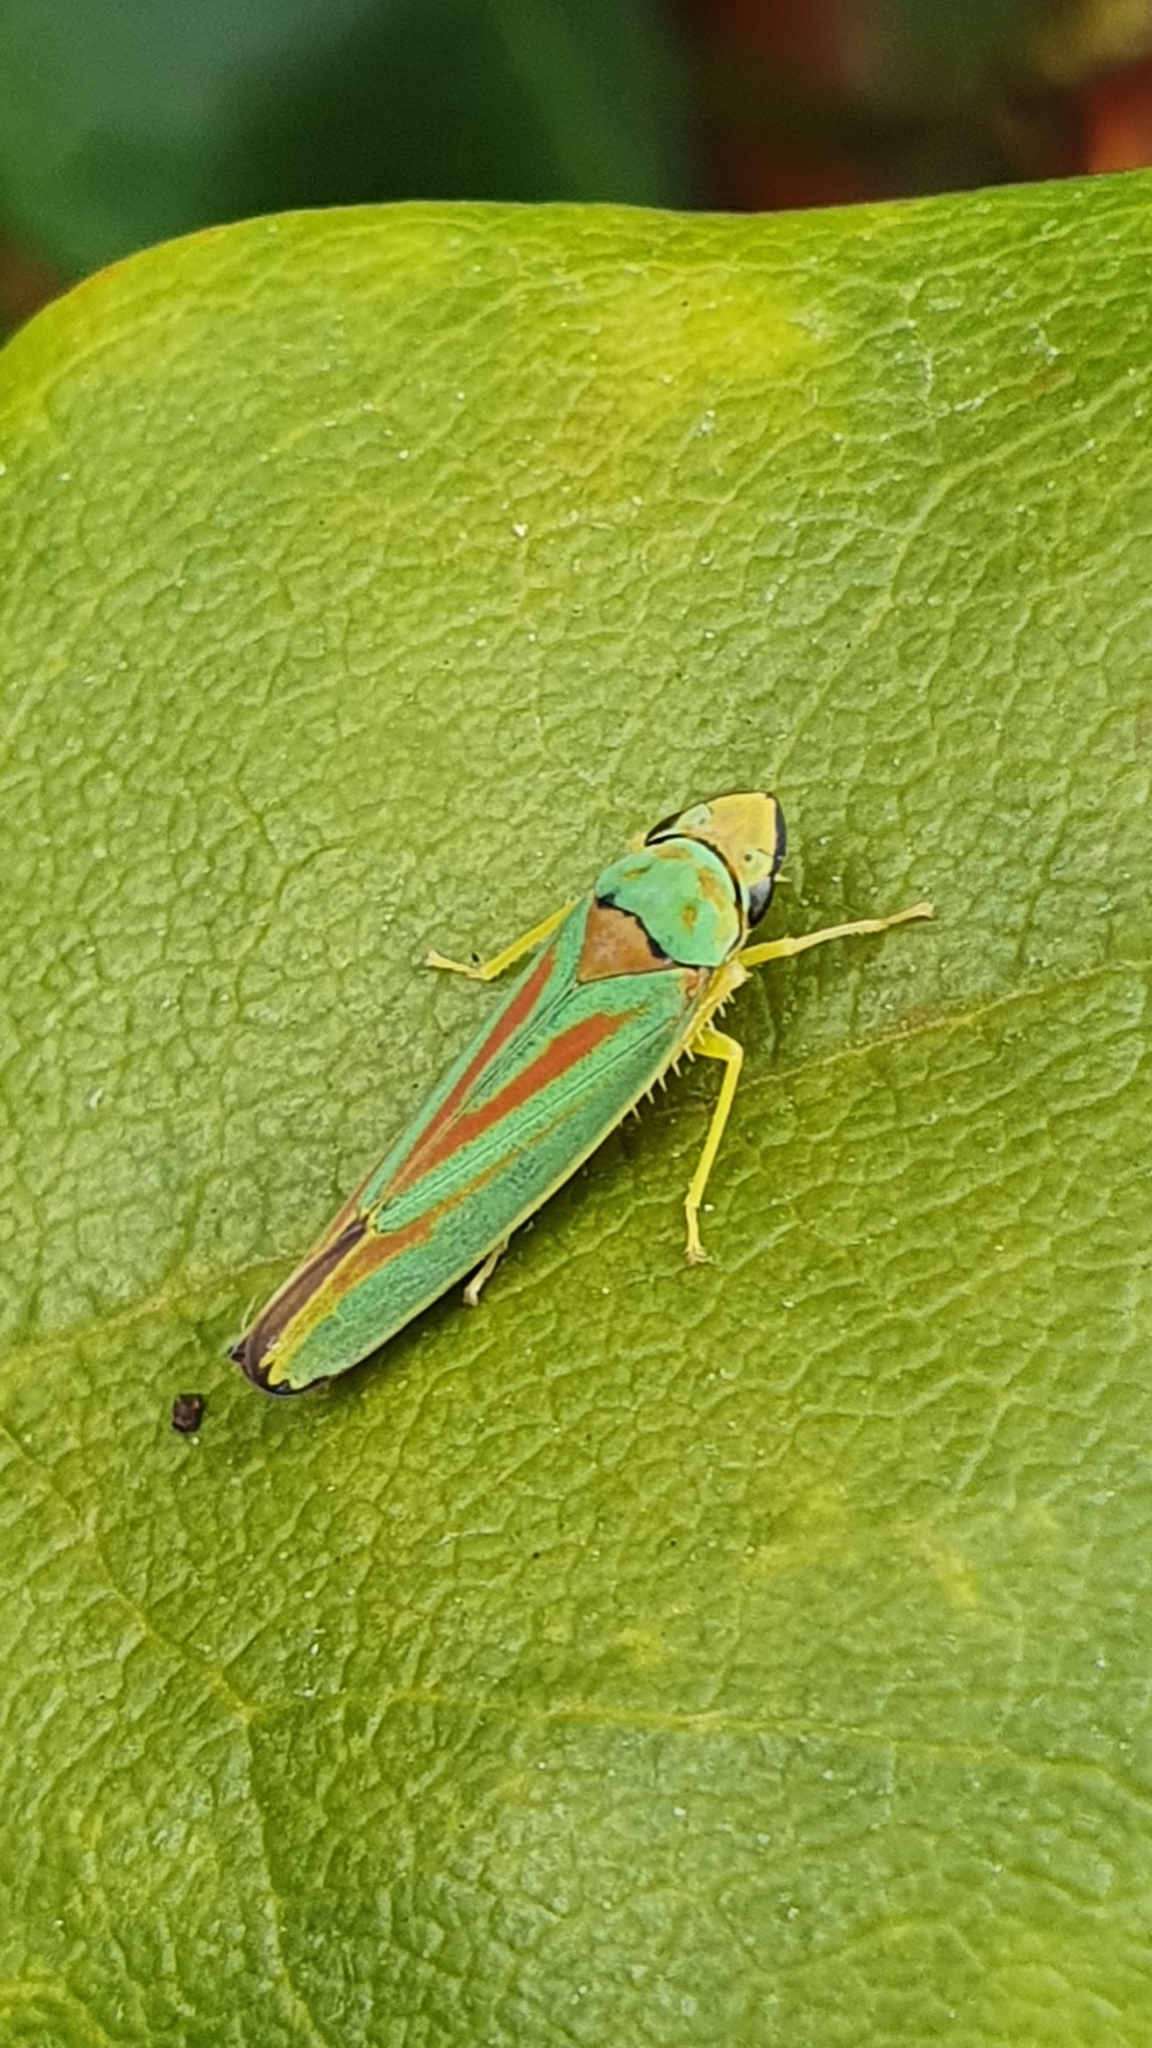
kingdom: Animalia
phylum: Arthropoda
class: Insecta
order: Hemiptera
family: Cicadellidae
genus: Graphocephala
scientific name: Graphocephala fennahi
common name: Rhododendron leafhopper
